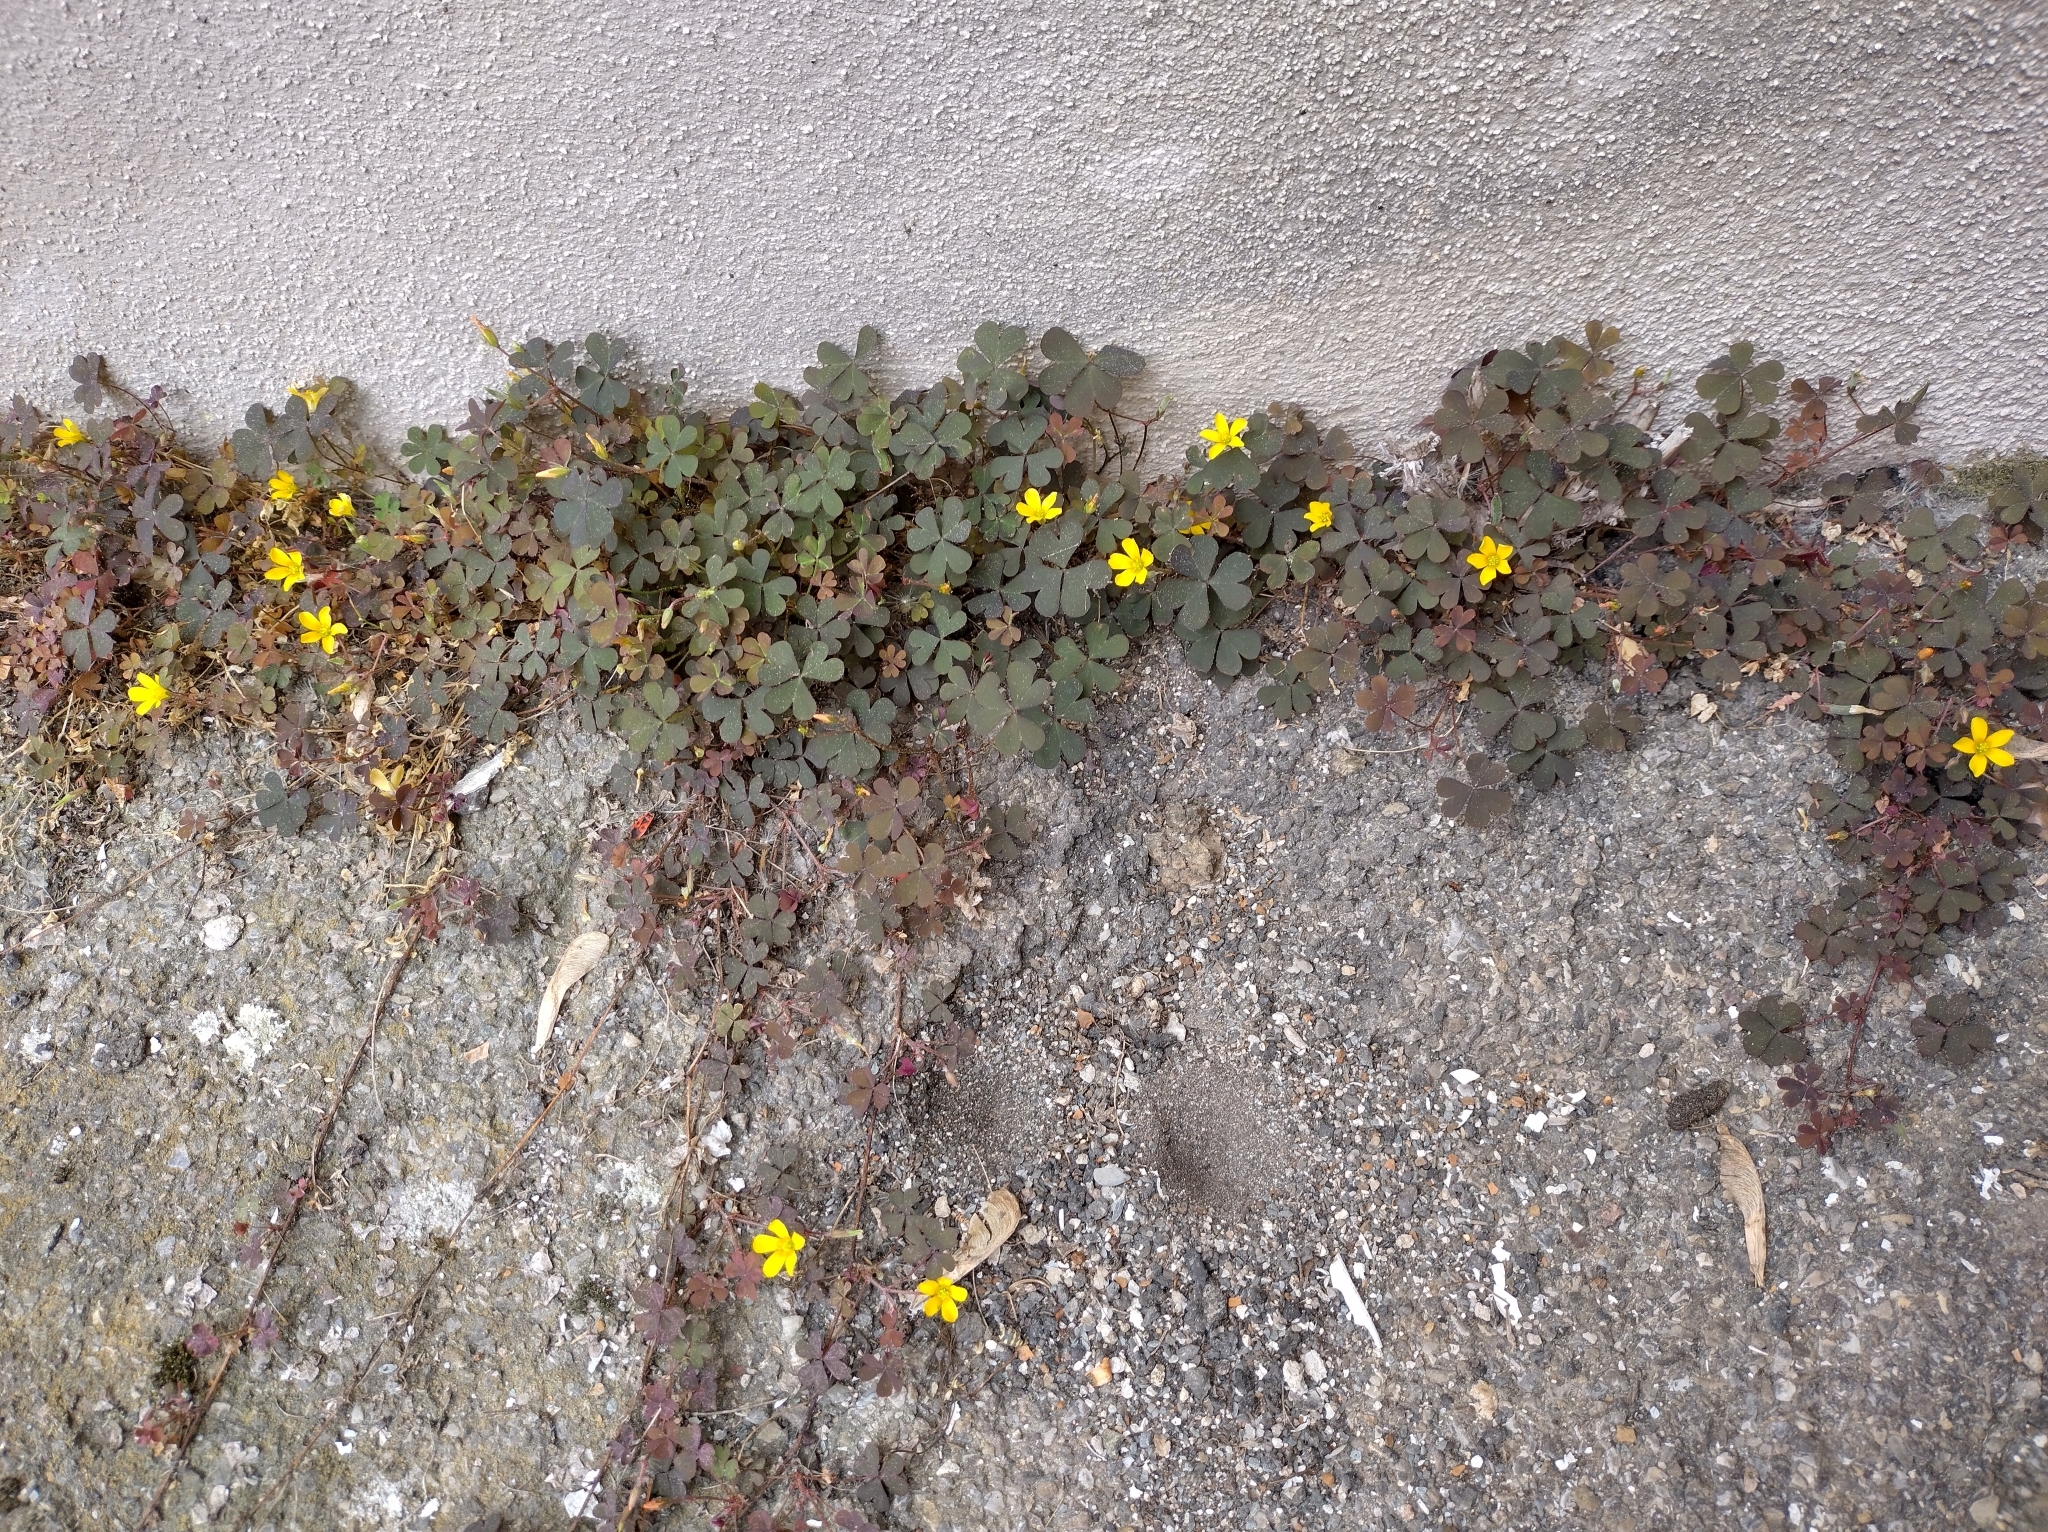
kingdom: Plantae
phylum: Tracheophyta
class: Magnoliopsida
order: Oxalidales
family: Oxalidaceae
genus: Oxalis
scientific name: Oxalis corniculata
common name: Procumbent yellow-sorrel
